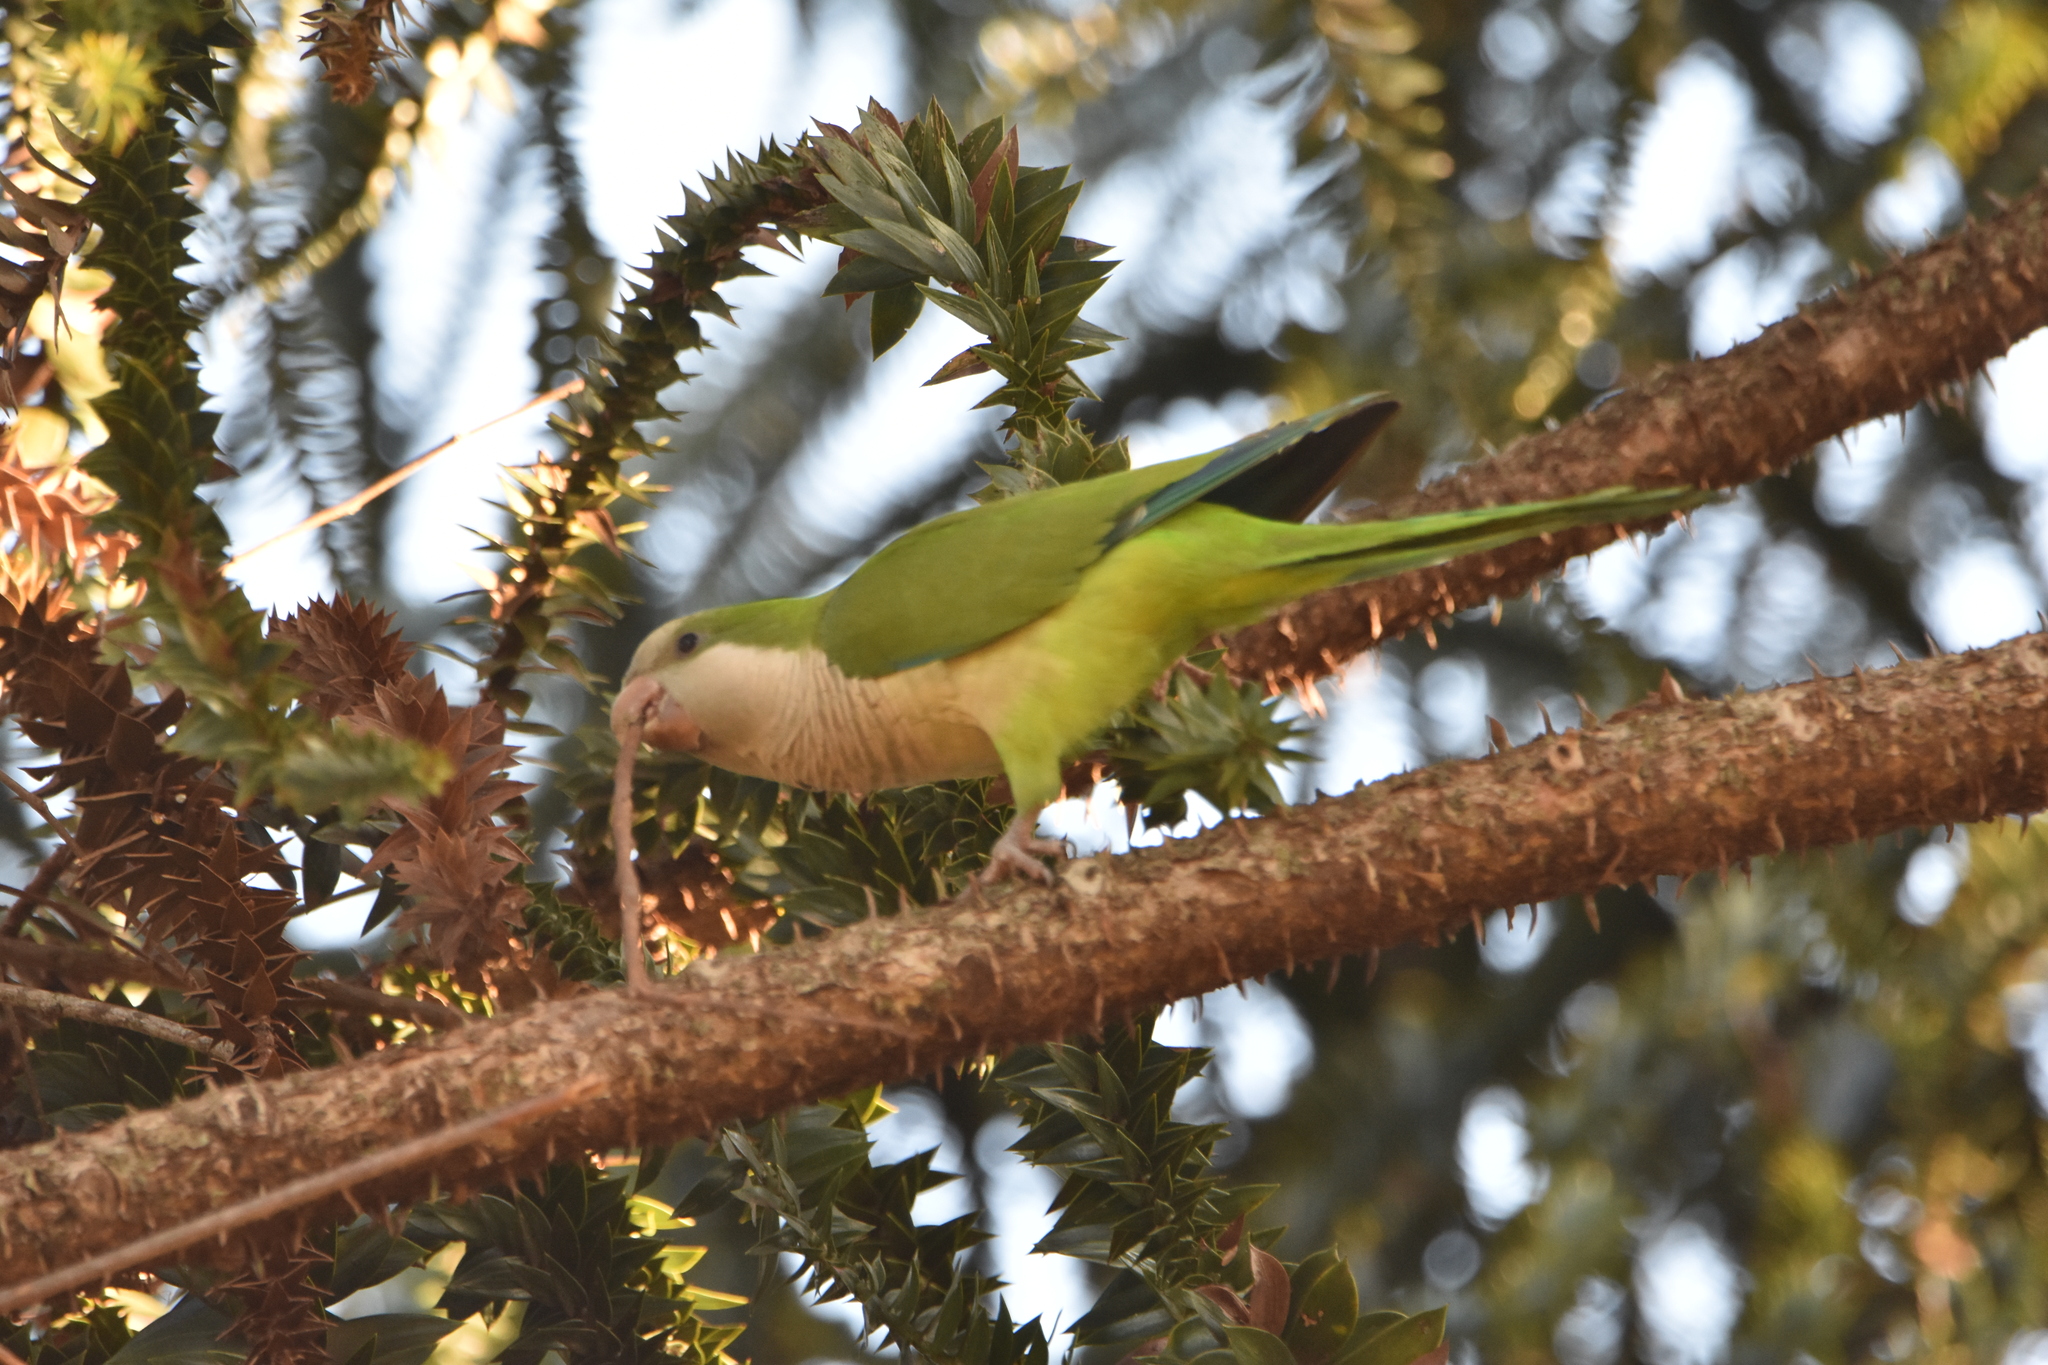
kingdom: Animalia
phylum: Chordata
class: Aves
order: Psittaciformes
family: Psittacidae
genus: Myiopsitta
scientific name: Myiopsitta monachus
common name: Monk parakeet
